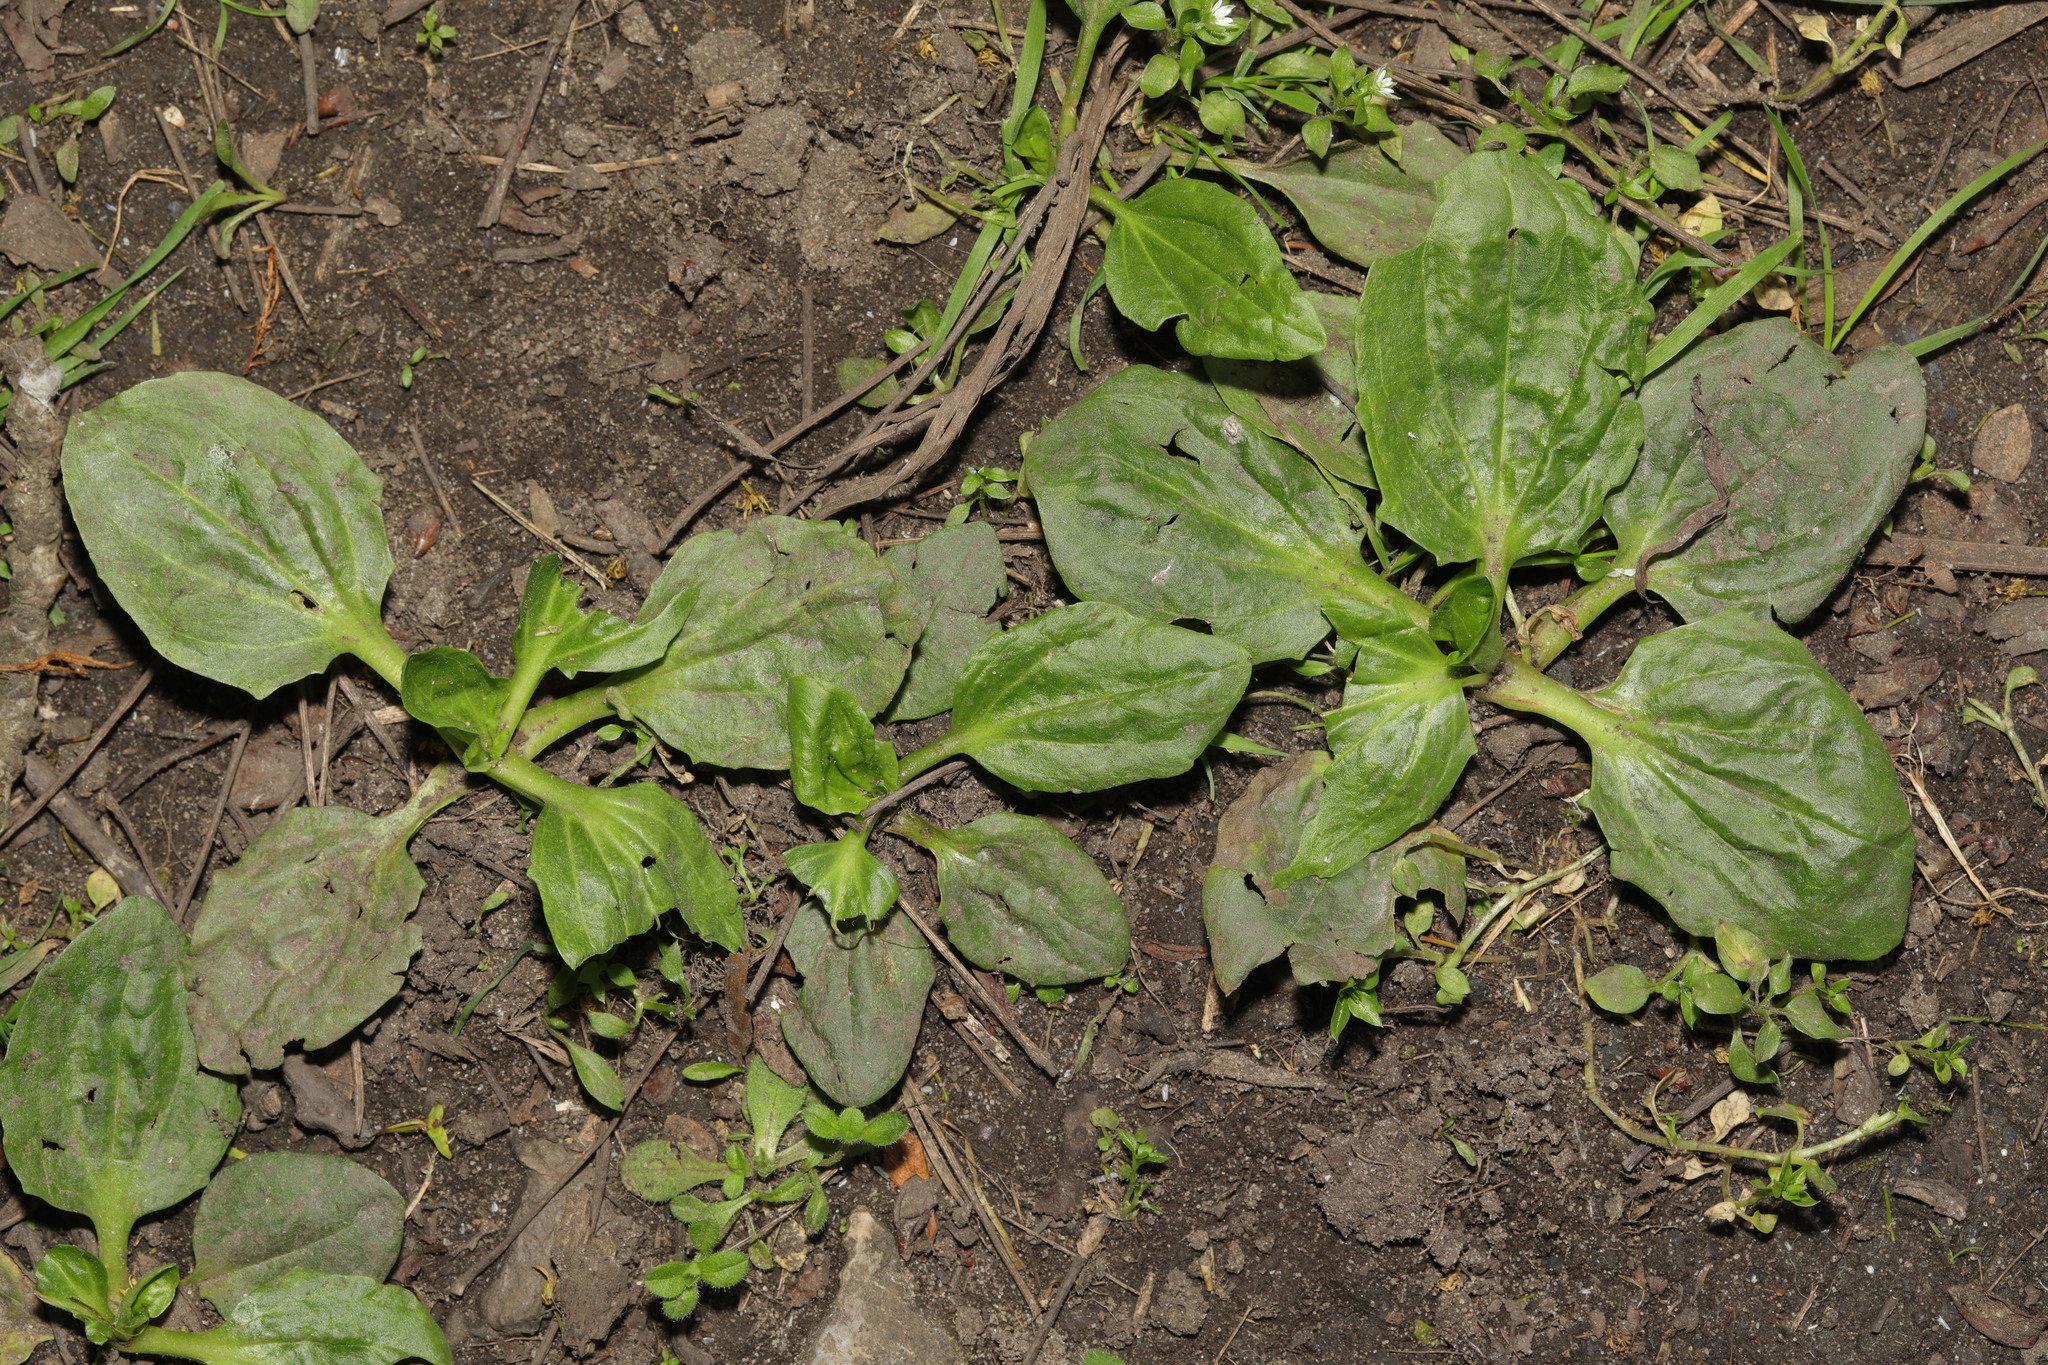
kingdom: Plantae
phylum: Tracheophyta
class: Magnoliopsida
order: Lamiales
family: Plantaginaceae
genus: Plantago
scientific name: Plantago major
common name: Common plantain
